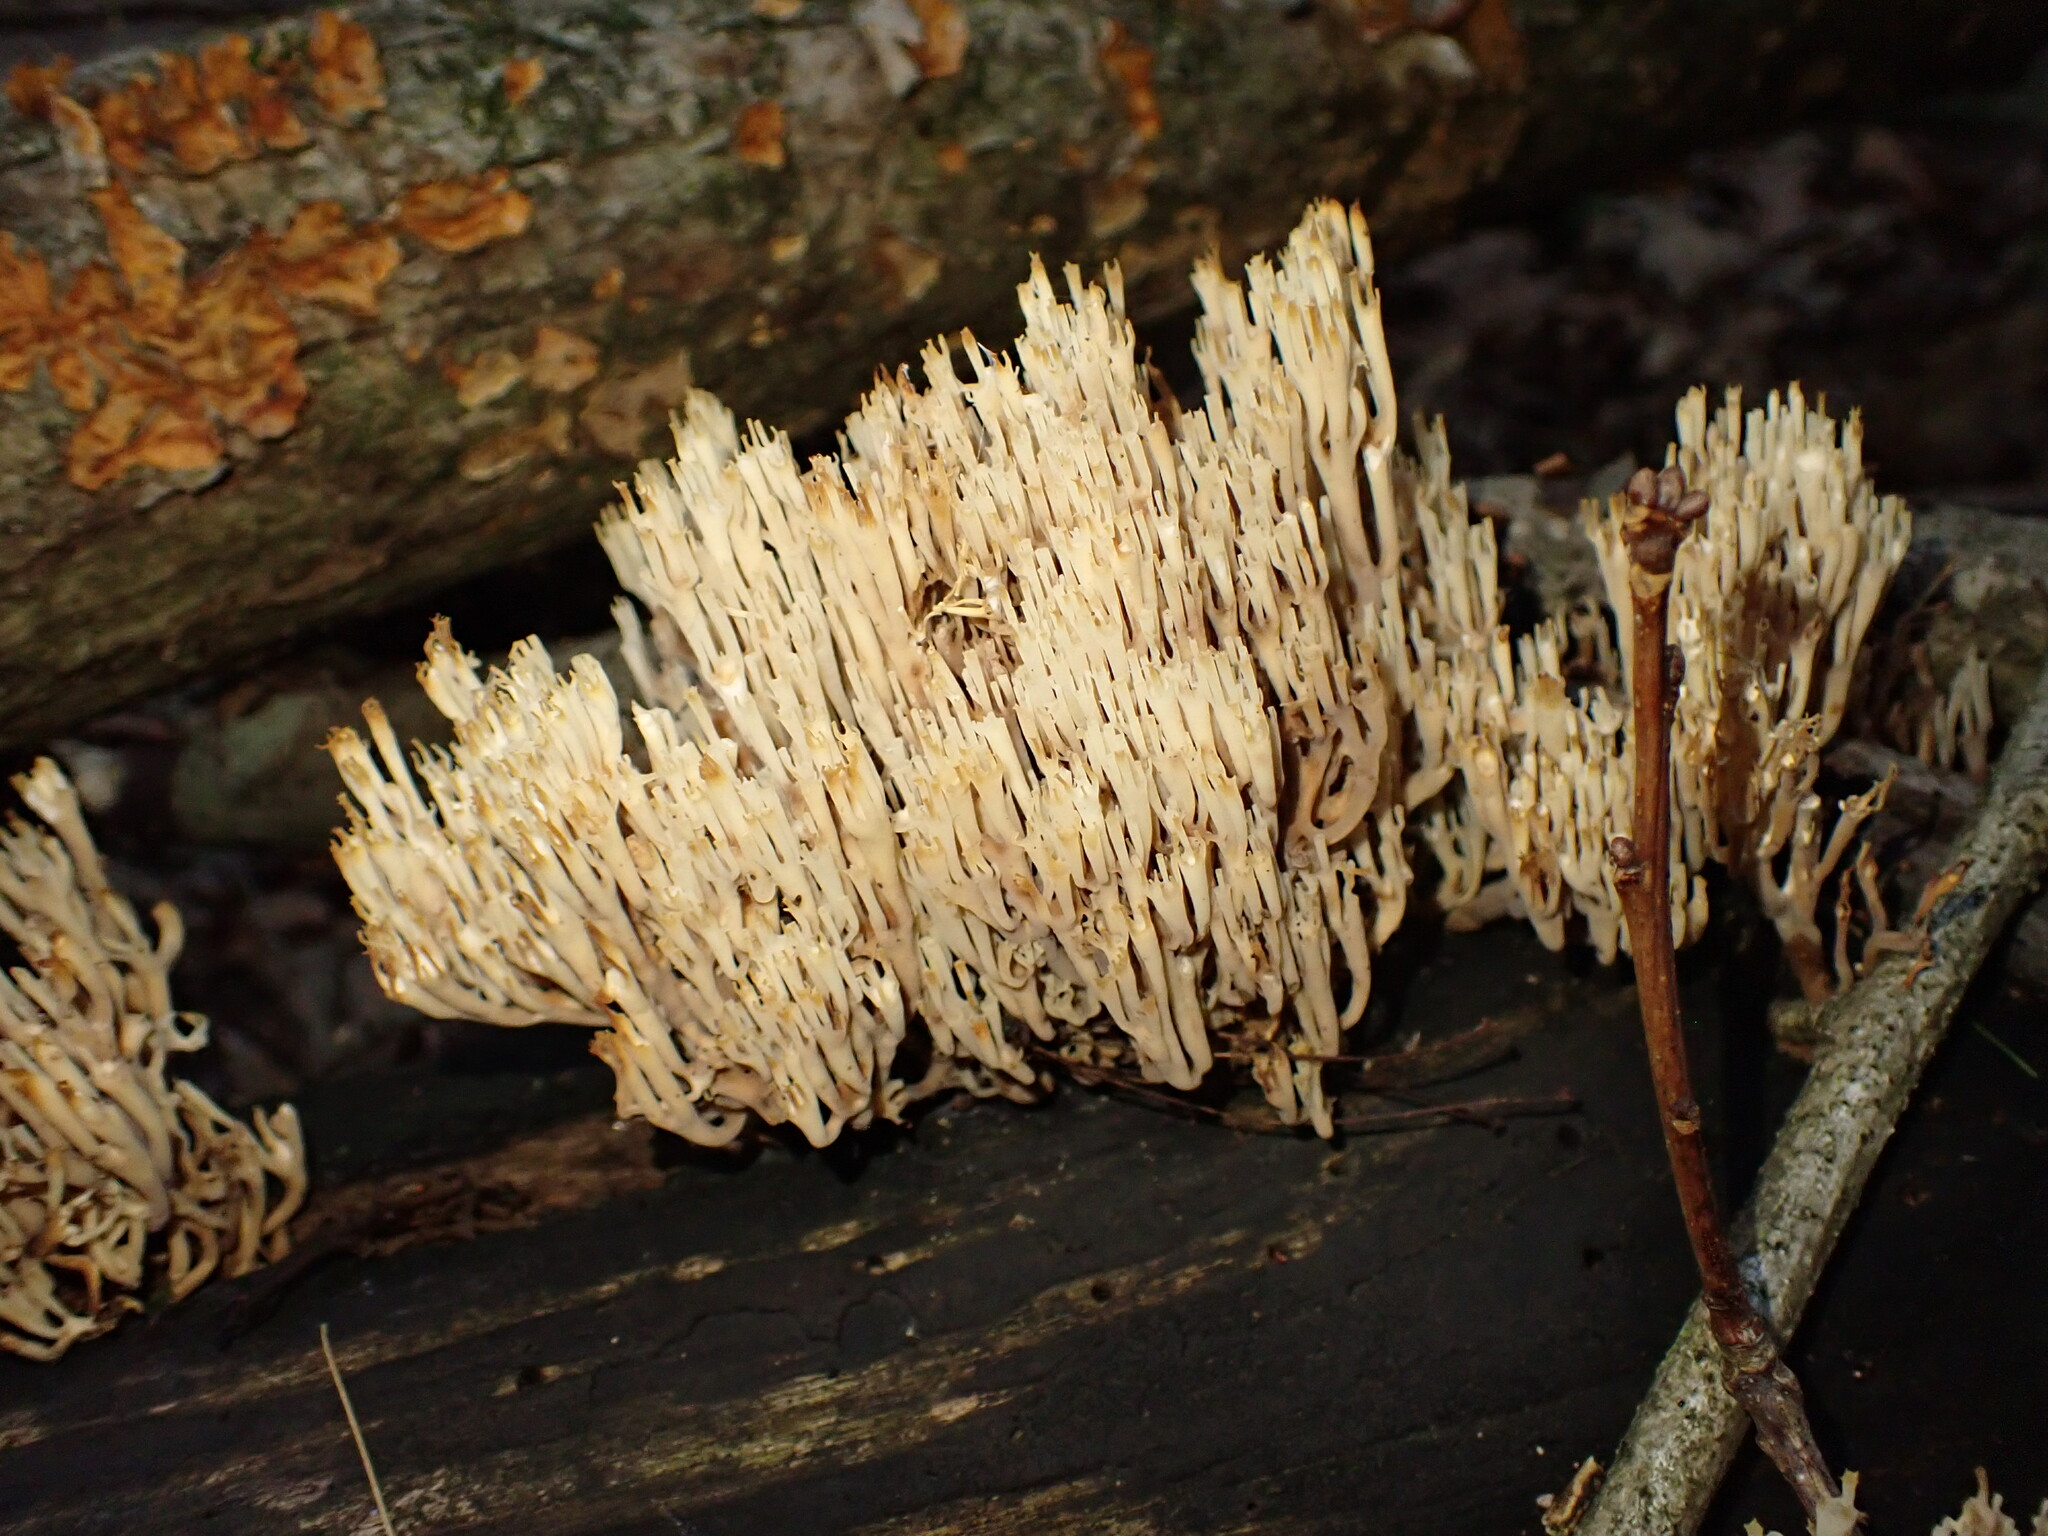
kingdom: Fungi
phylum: Basidiomycota
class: Agaricomycetes
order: Russulales
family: Auriscalpiaceae
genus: Artomyces
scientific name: Artomyces pyxidatus
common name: Crown-tipped coral fungus
